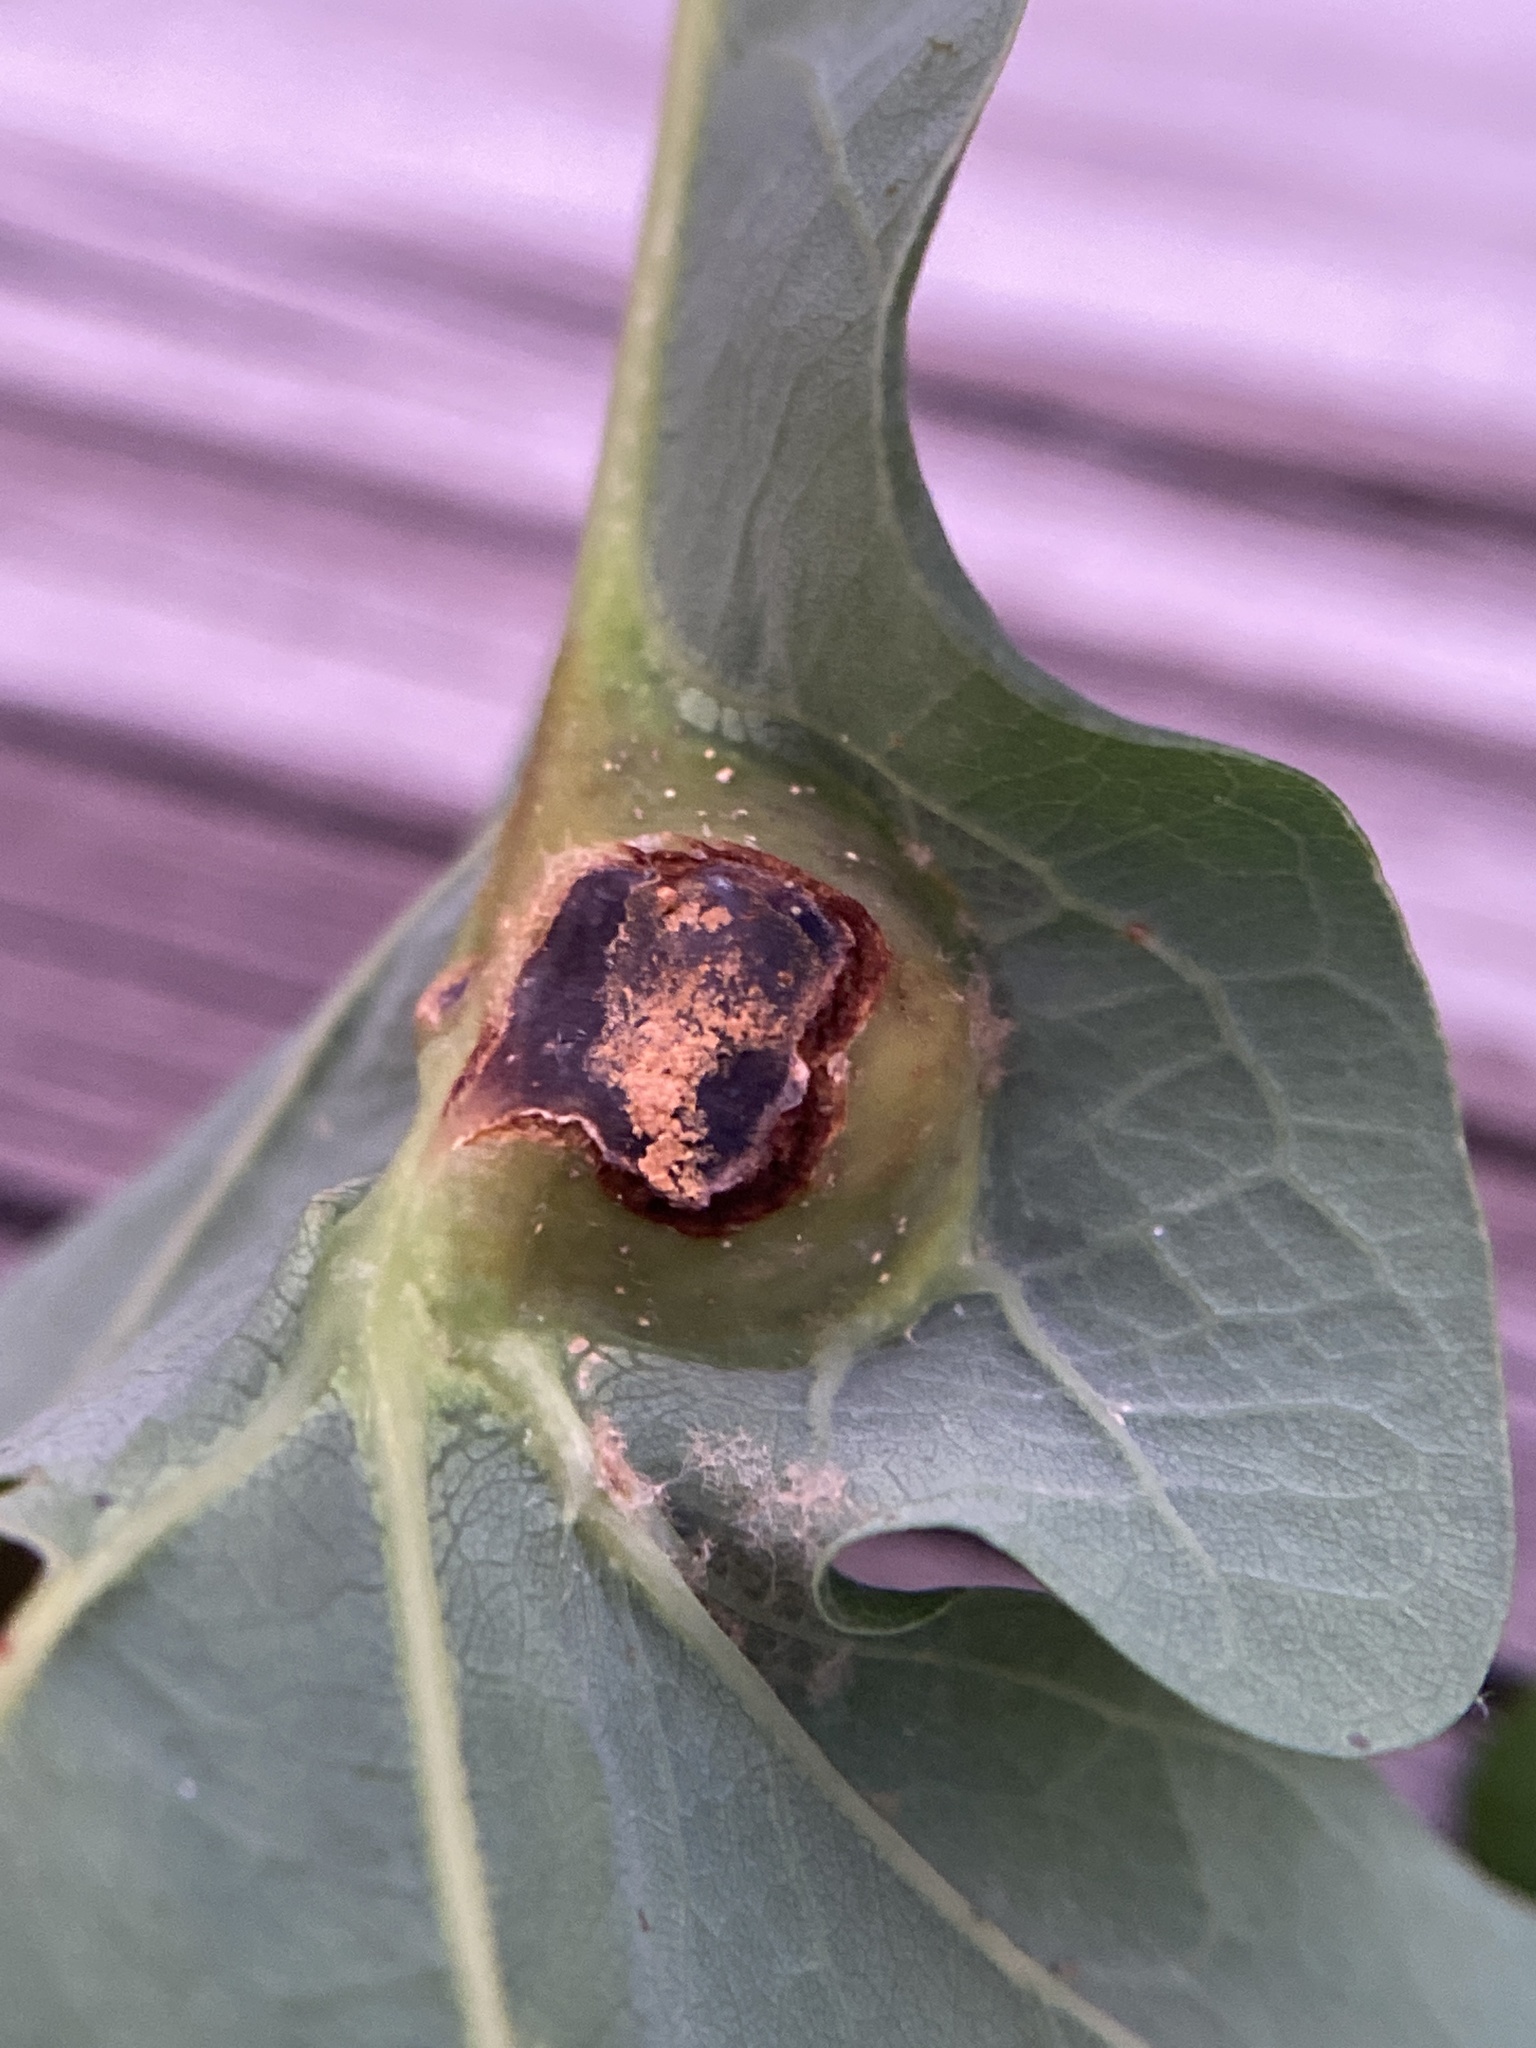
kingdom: Animalia
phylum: Arthropoda
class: Insecta
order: Hymenoptera
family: Cynipidae
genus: Andricus
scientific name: Andricus
